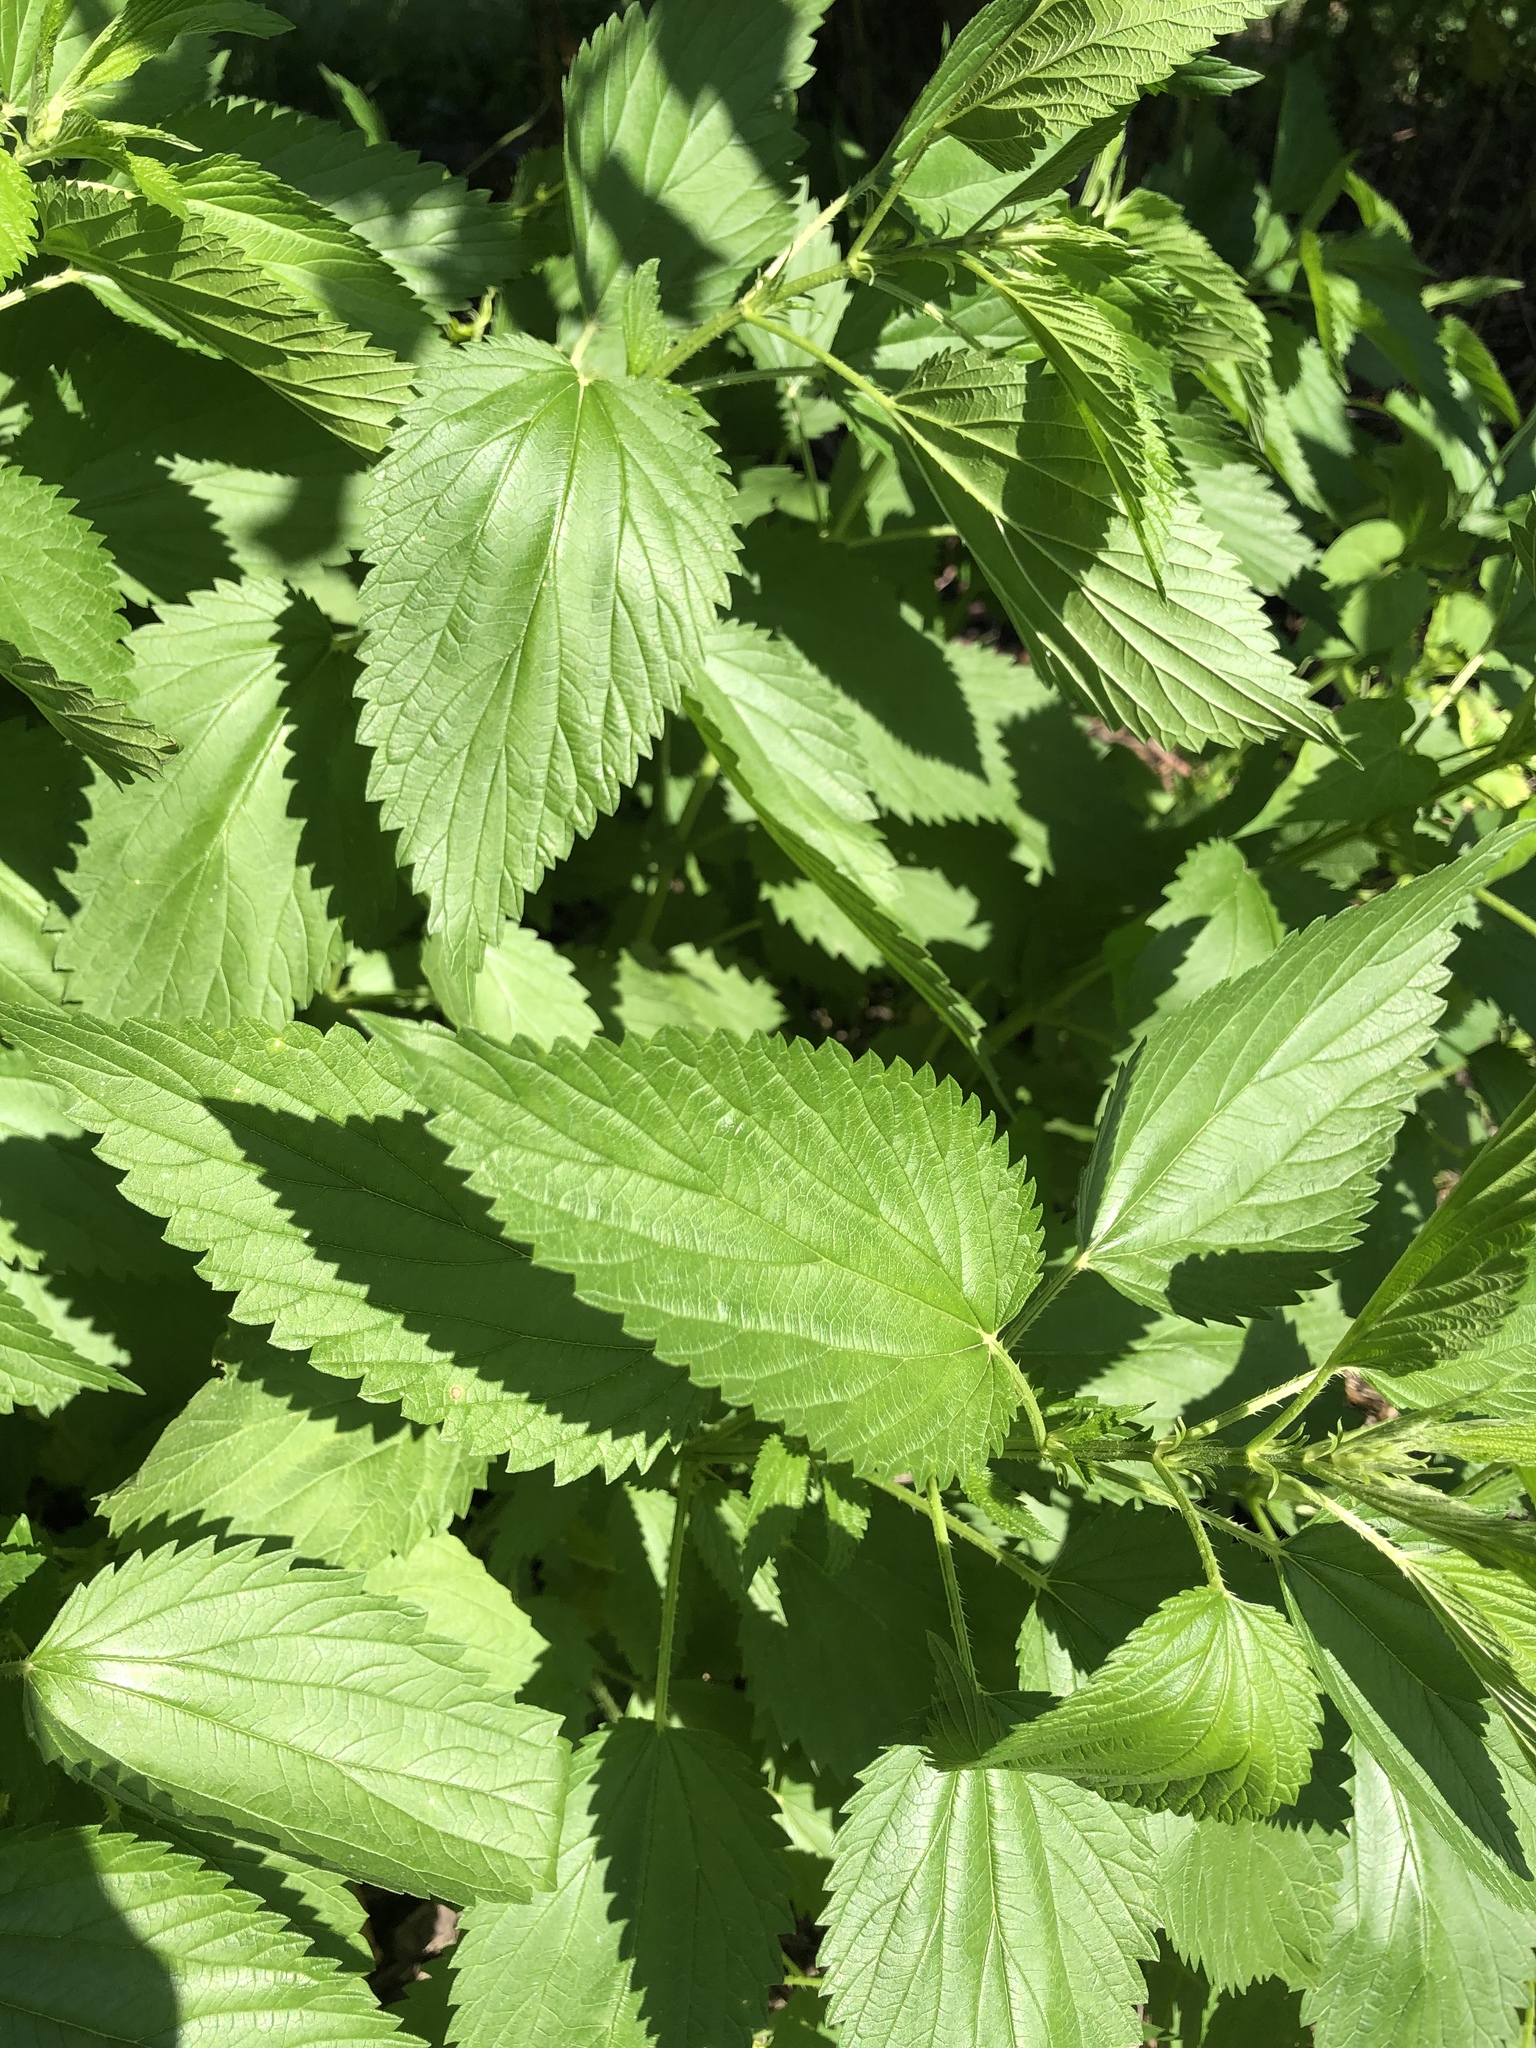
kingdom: Plantae
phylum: Tracheophyta
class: Magnoliopsida
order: Rosales
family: Urticaceae
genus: Urtica
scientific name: Urtica dioica
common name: Common nettle
